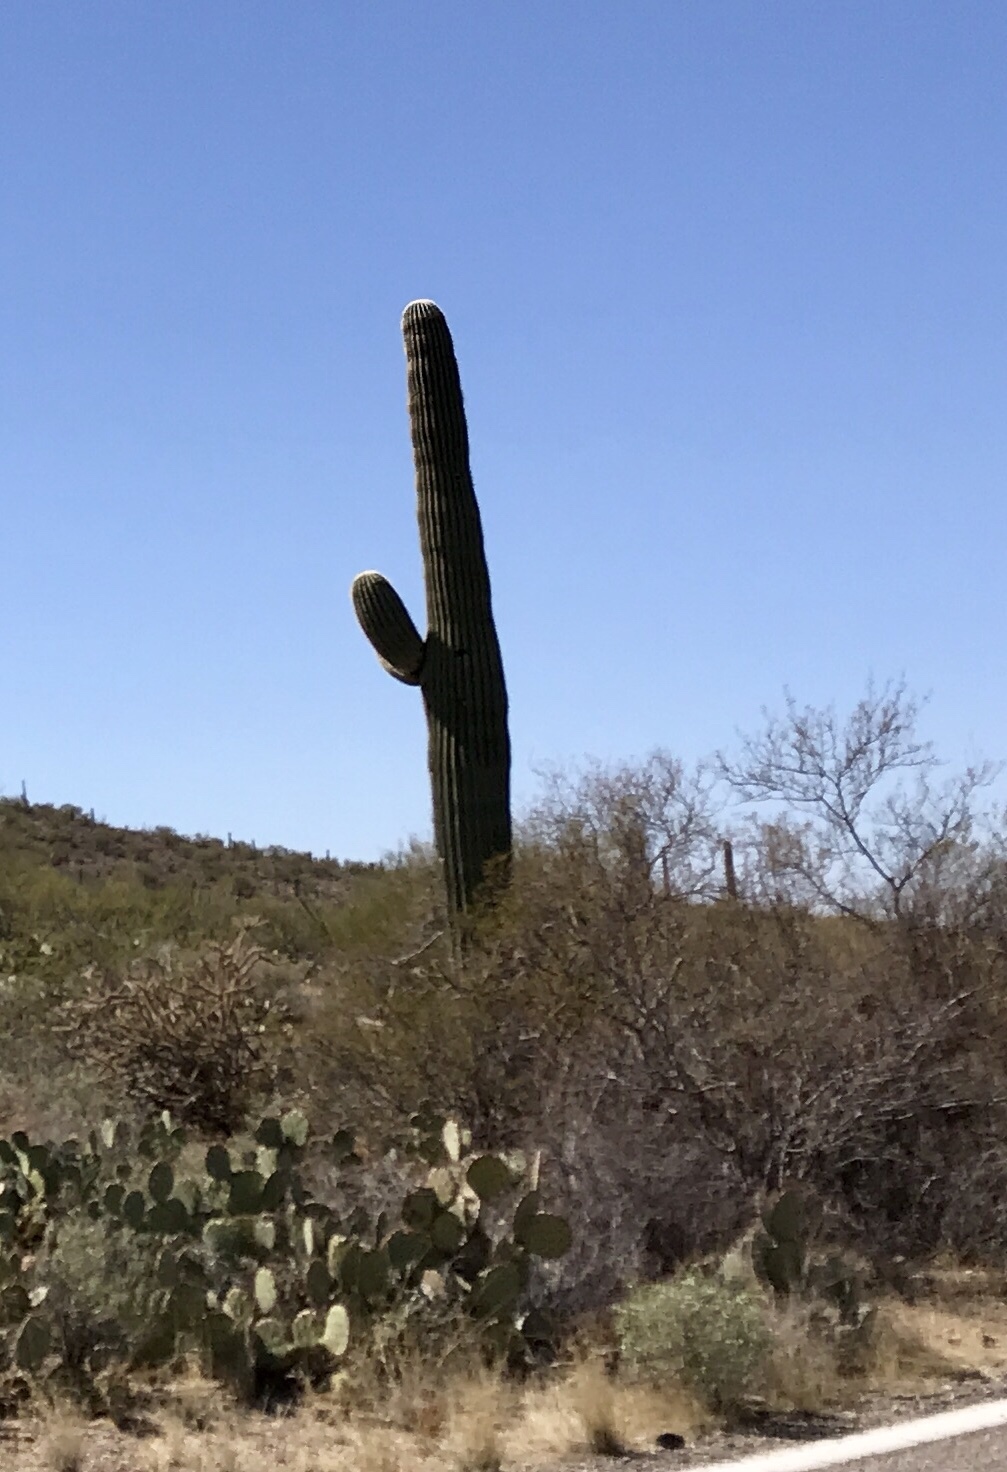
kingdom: Plantae
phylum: Tracheophyta
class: Magnoliopsida
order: Caryophyllales
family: Cactaceae
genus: Carnegiea
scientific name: Carnegiea gigantea
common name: Saguaro
